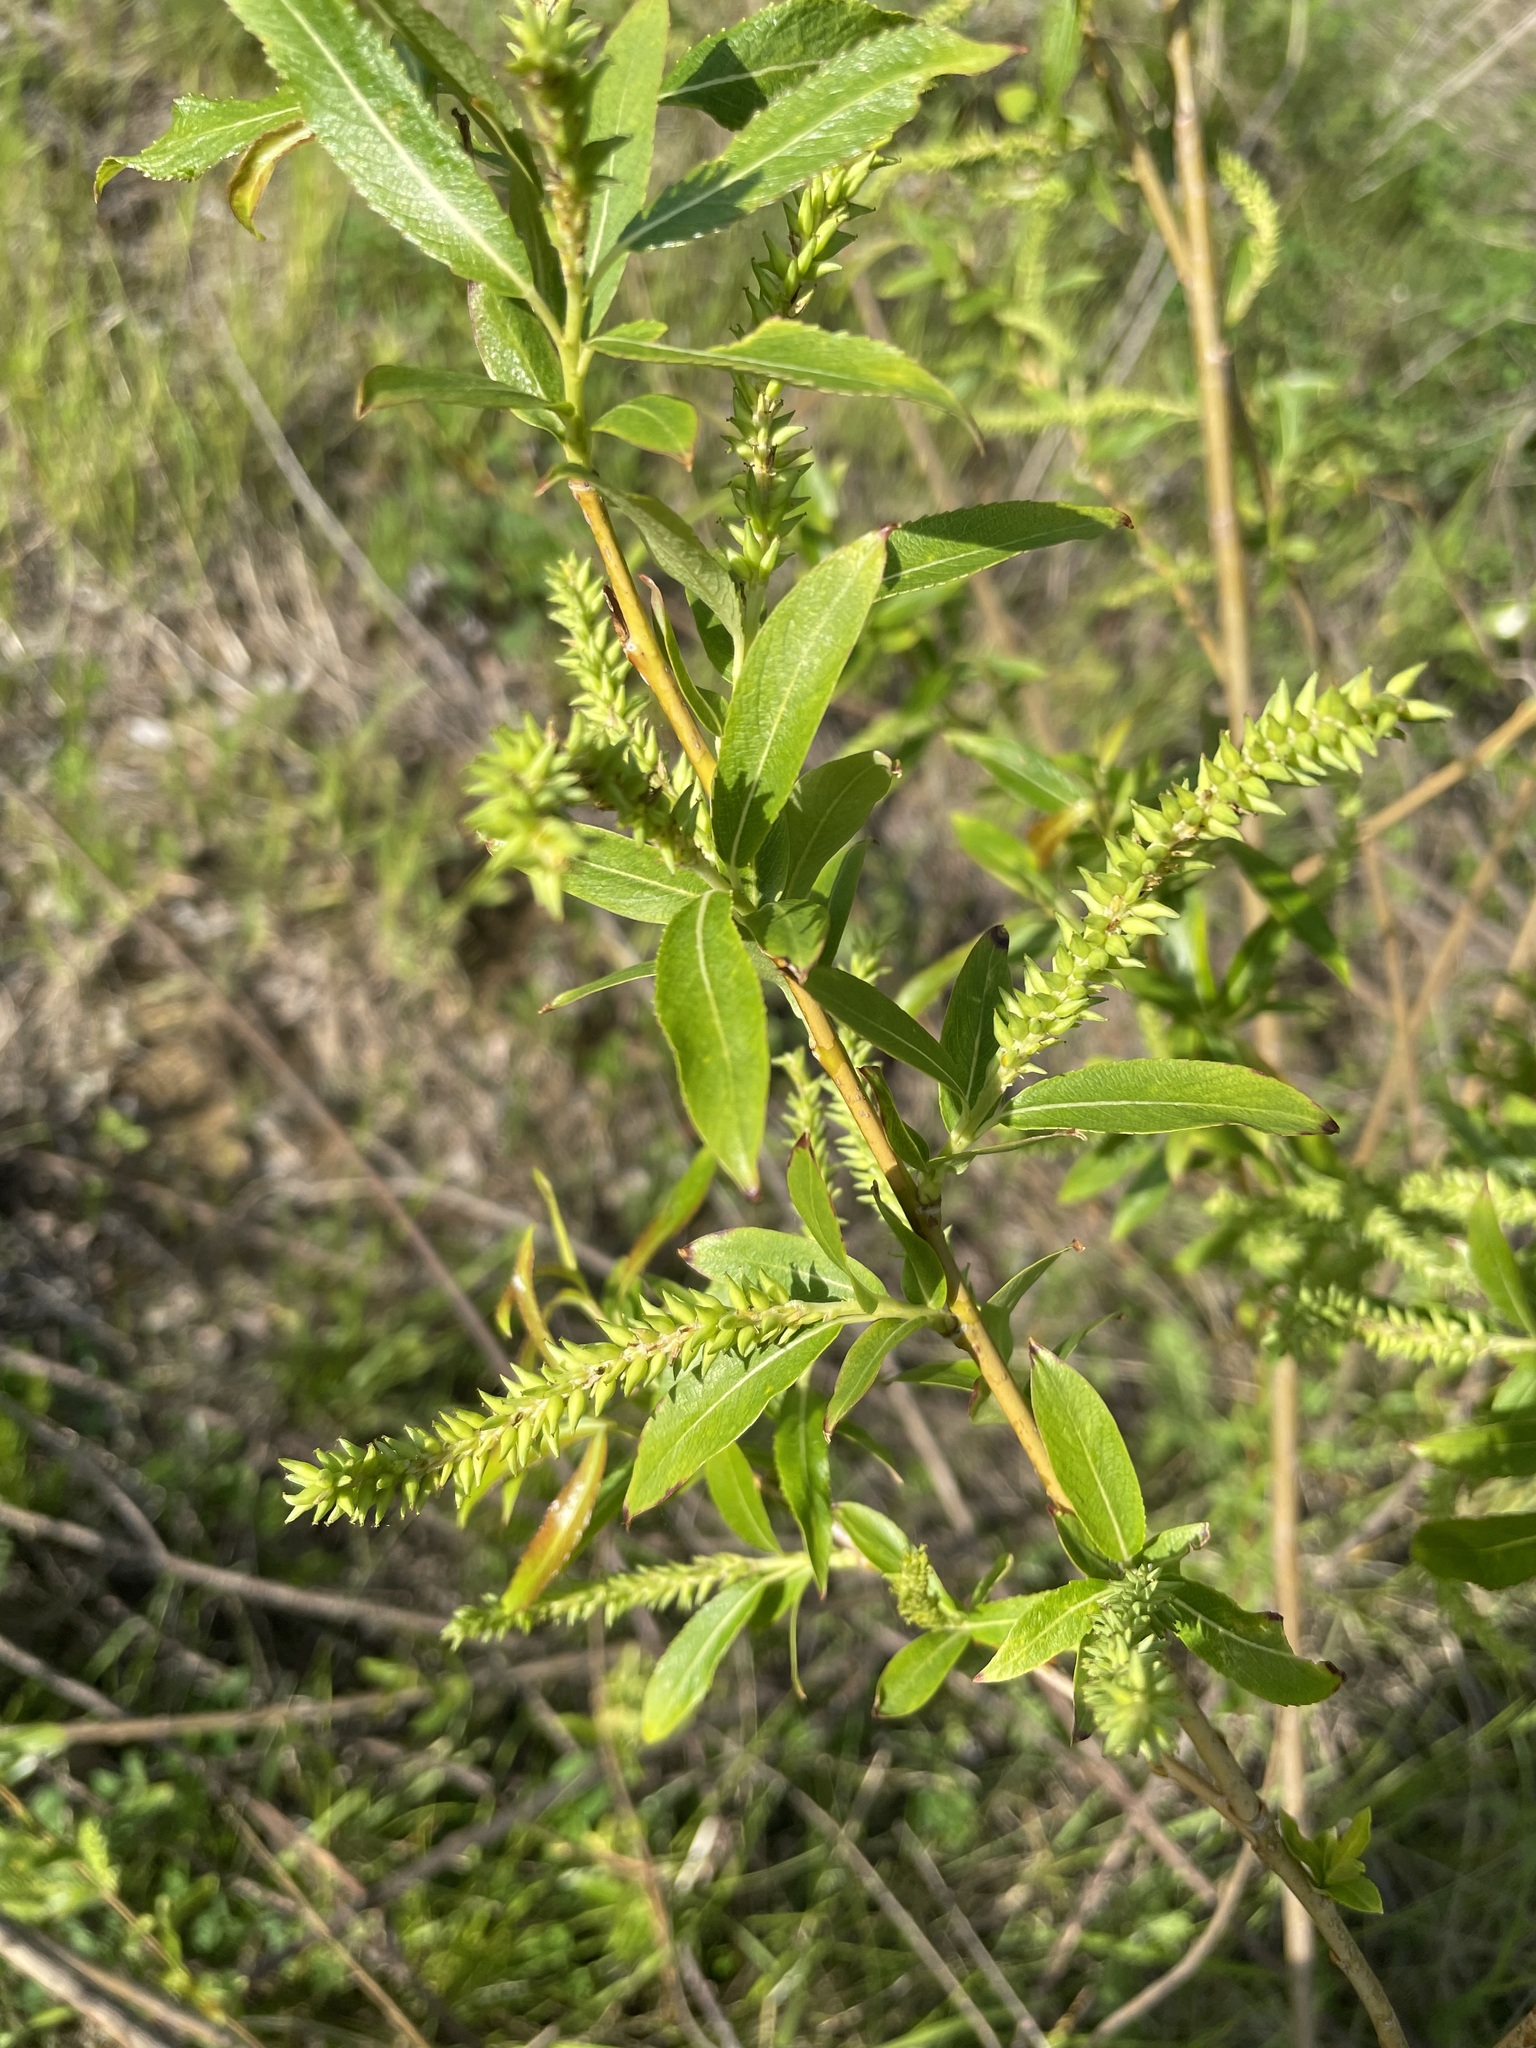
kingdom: Plantae
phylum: Tracheophyta
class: Magnoliopsida
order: Malpighiales
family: Salicaceae
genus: Salix
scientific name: Salix triandra
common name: Almond willow
